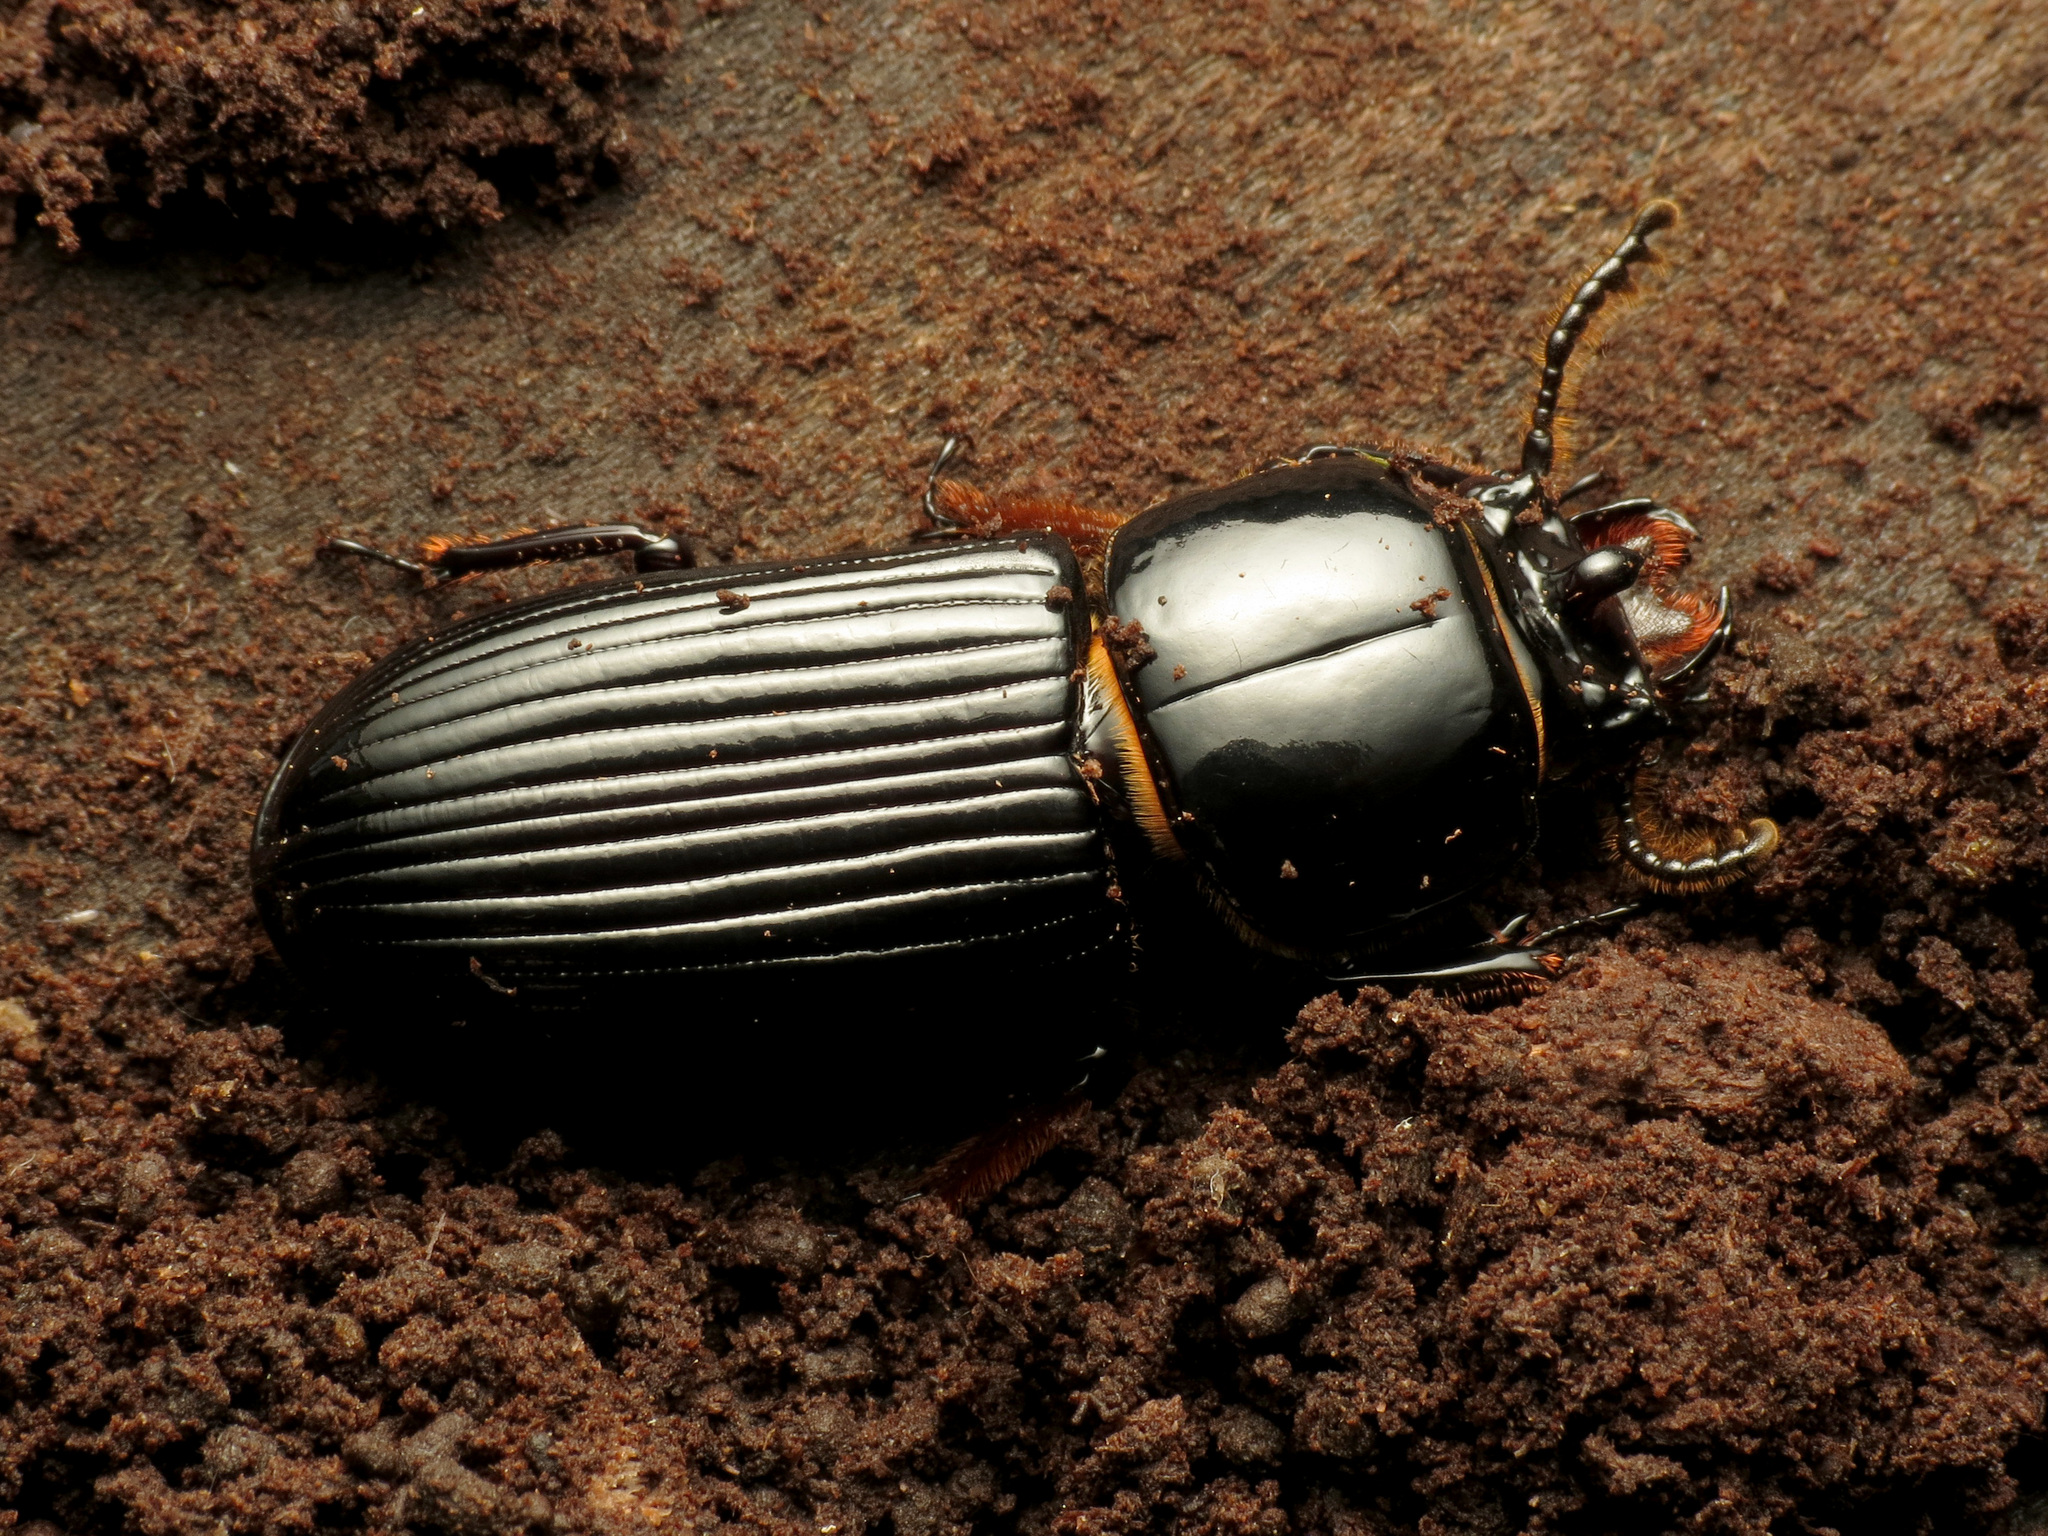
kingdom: Animalia
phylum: Arthropoda
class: Insecta
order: Coleoptera
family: Passalidae
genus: Odontotaenius
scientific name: Odontotaenius disjunctus
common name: Patent leather beetle
